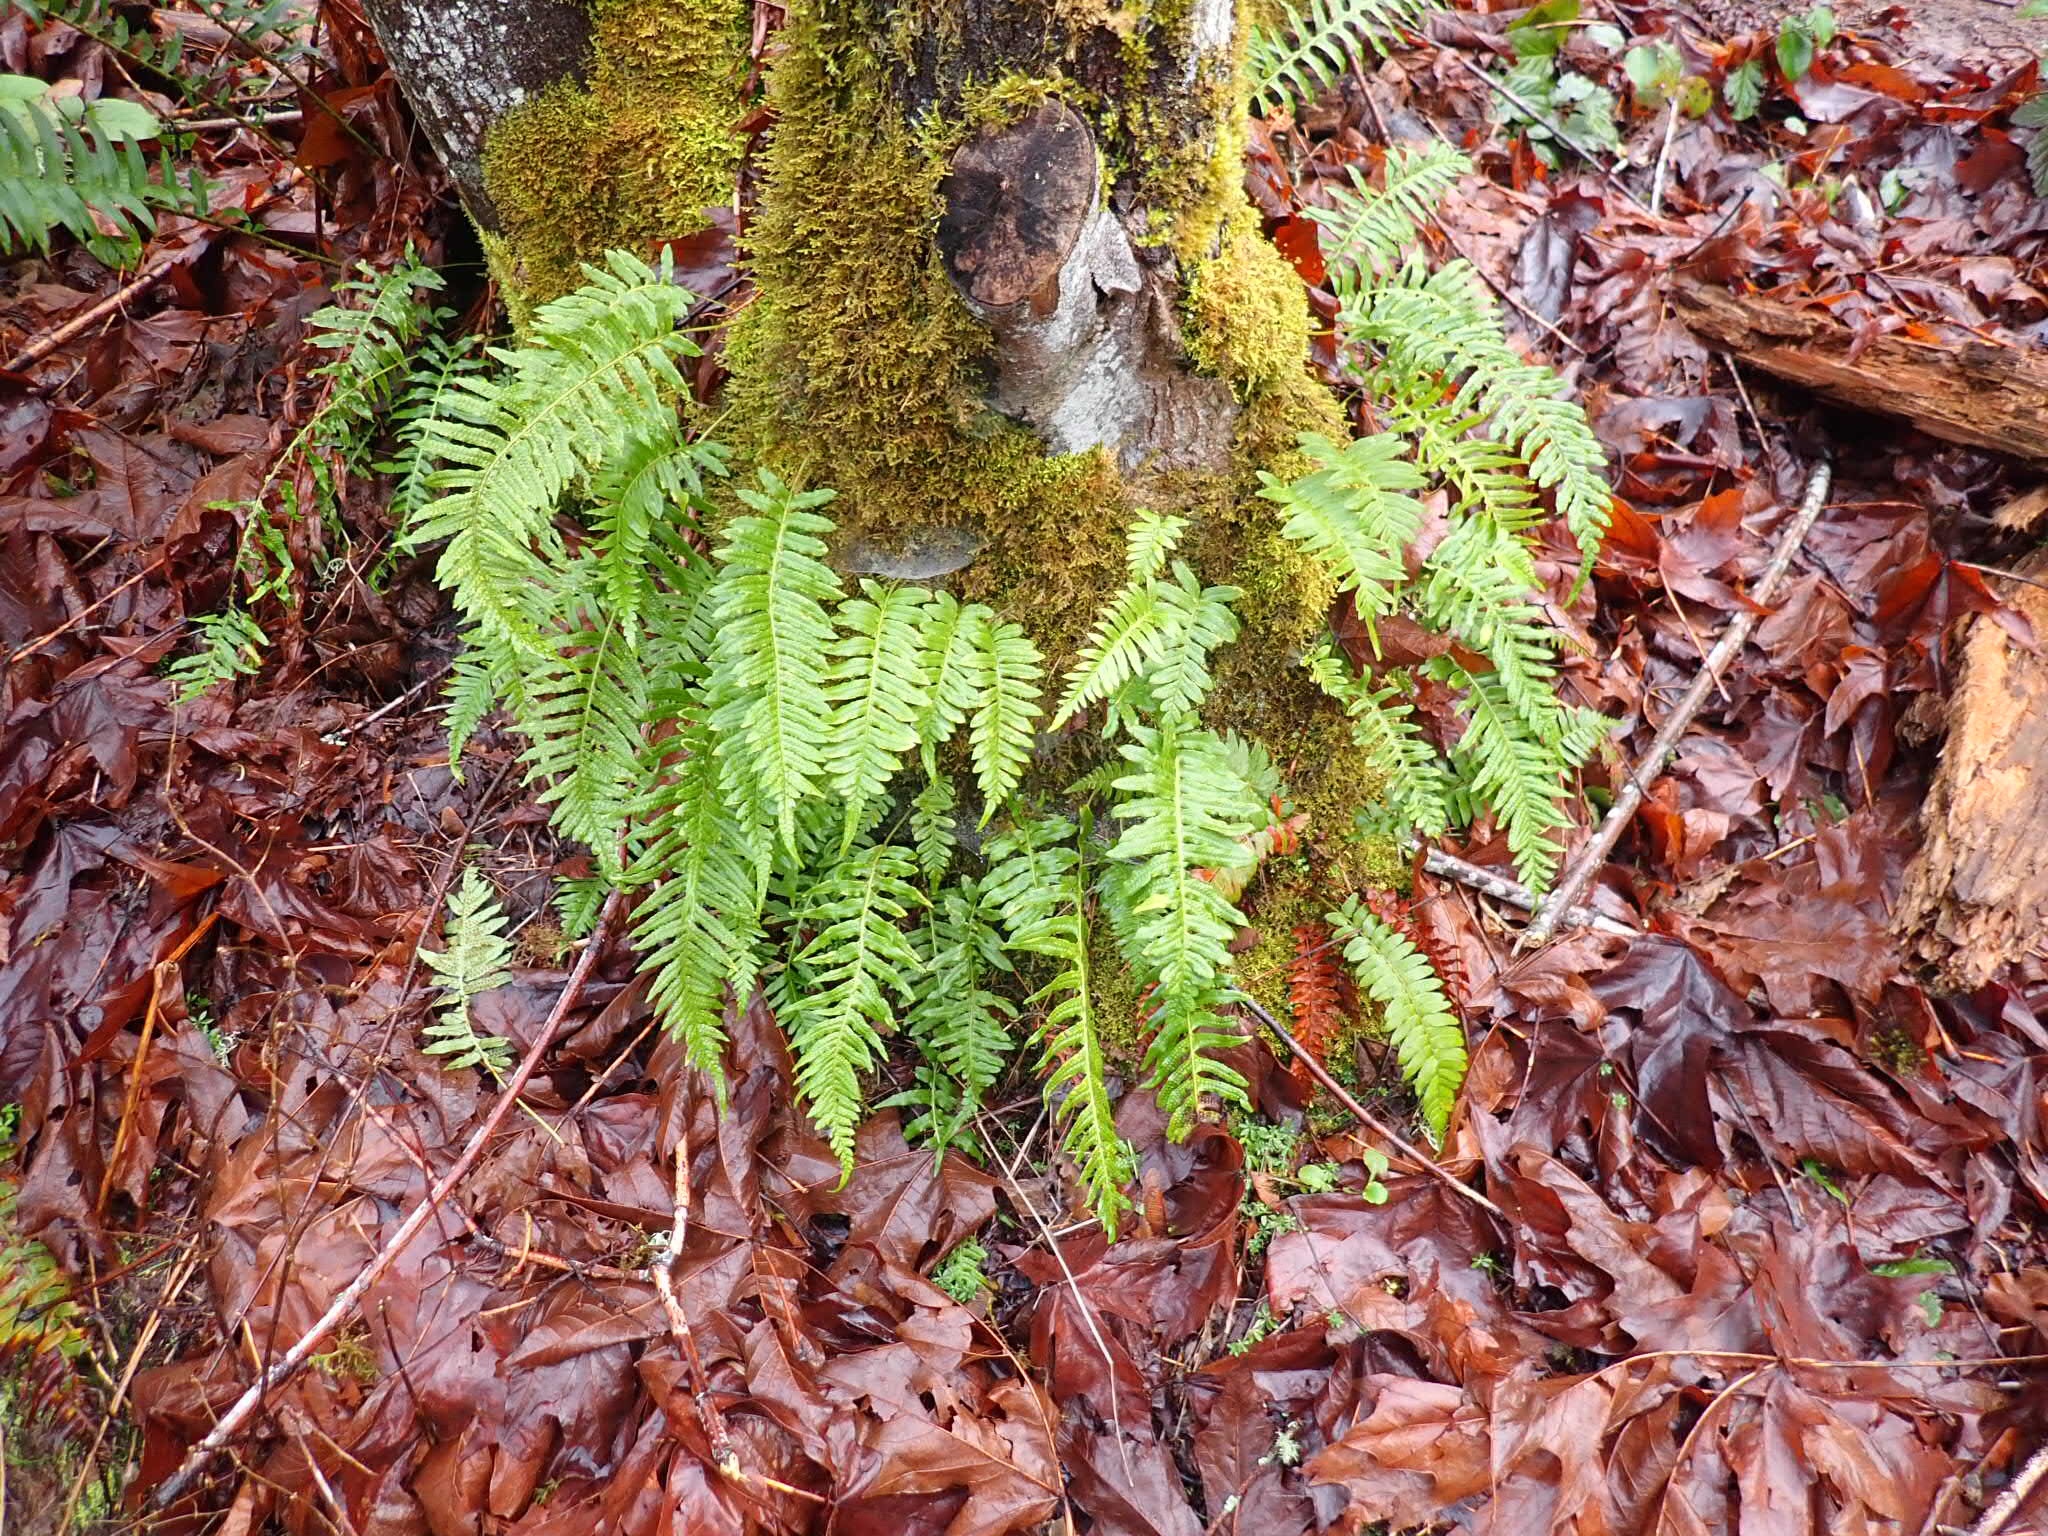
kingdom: Plantae
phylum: Tracheophyta
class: Polypodiopsida
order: Polypodiales
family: Polypodiaceae
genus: Polypodium
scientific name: Polypodium glycyrrhiza
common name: Licorice fern
